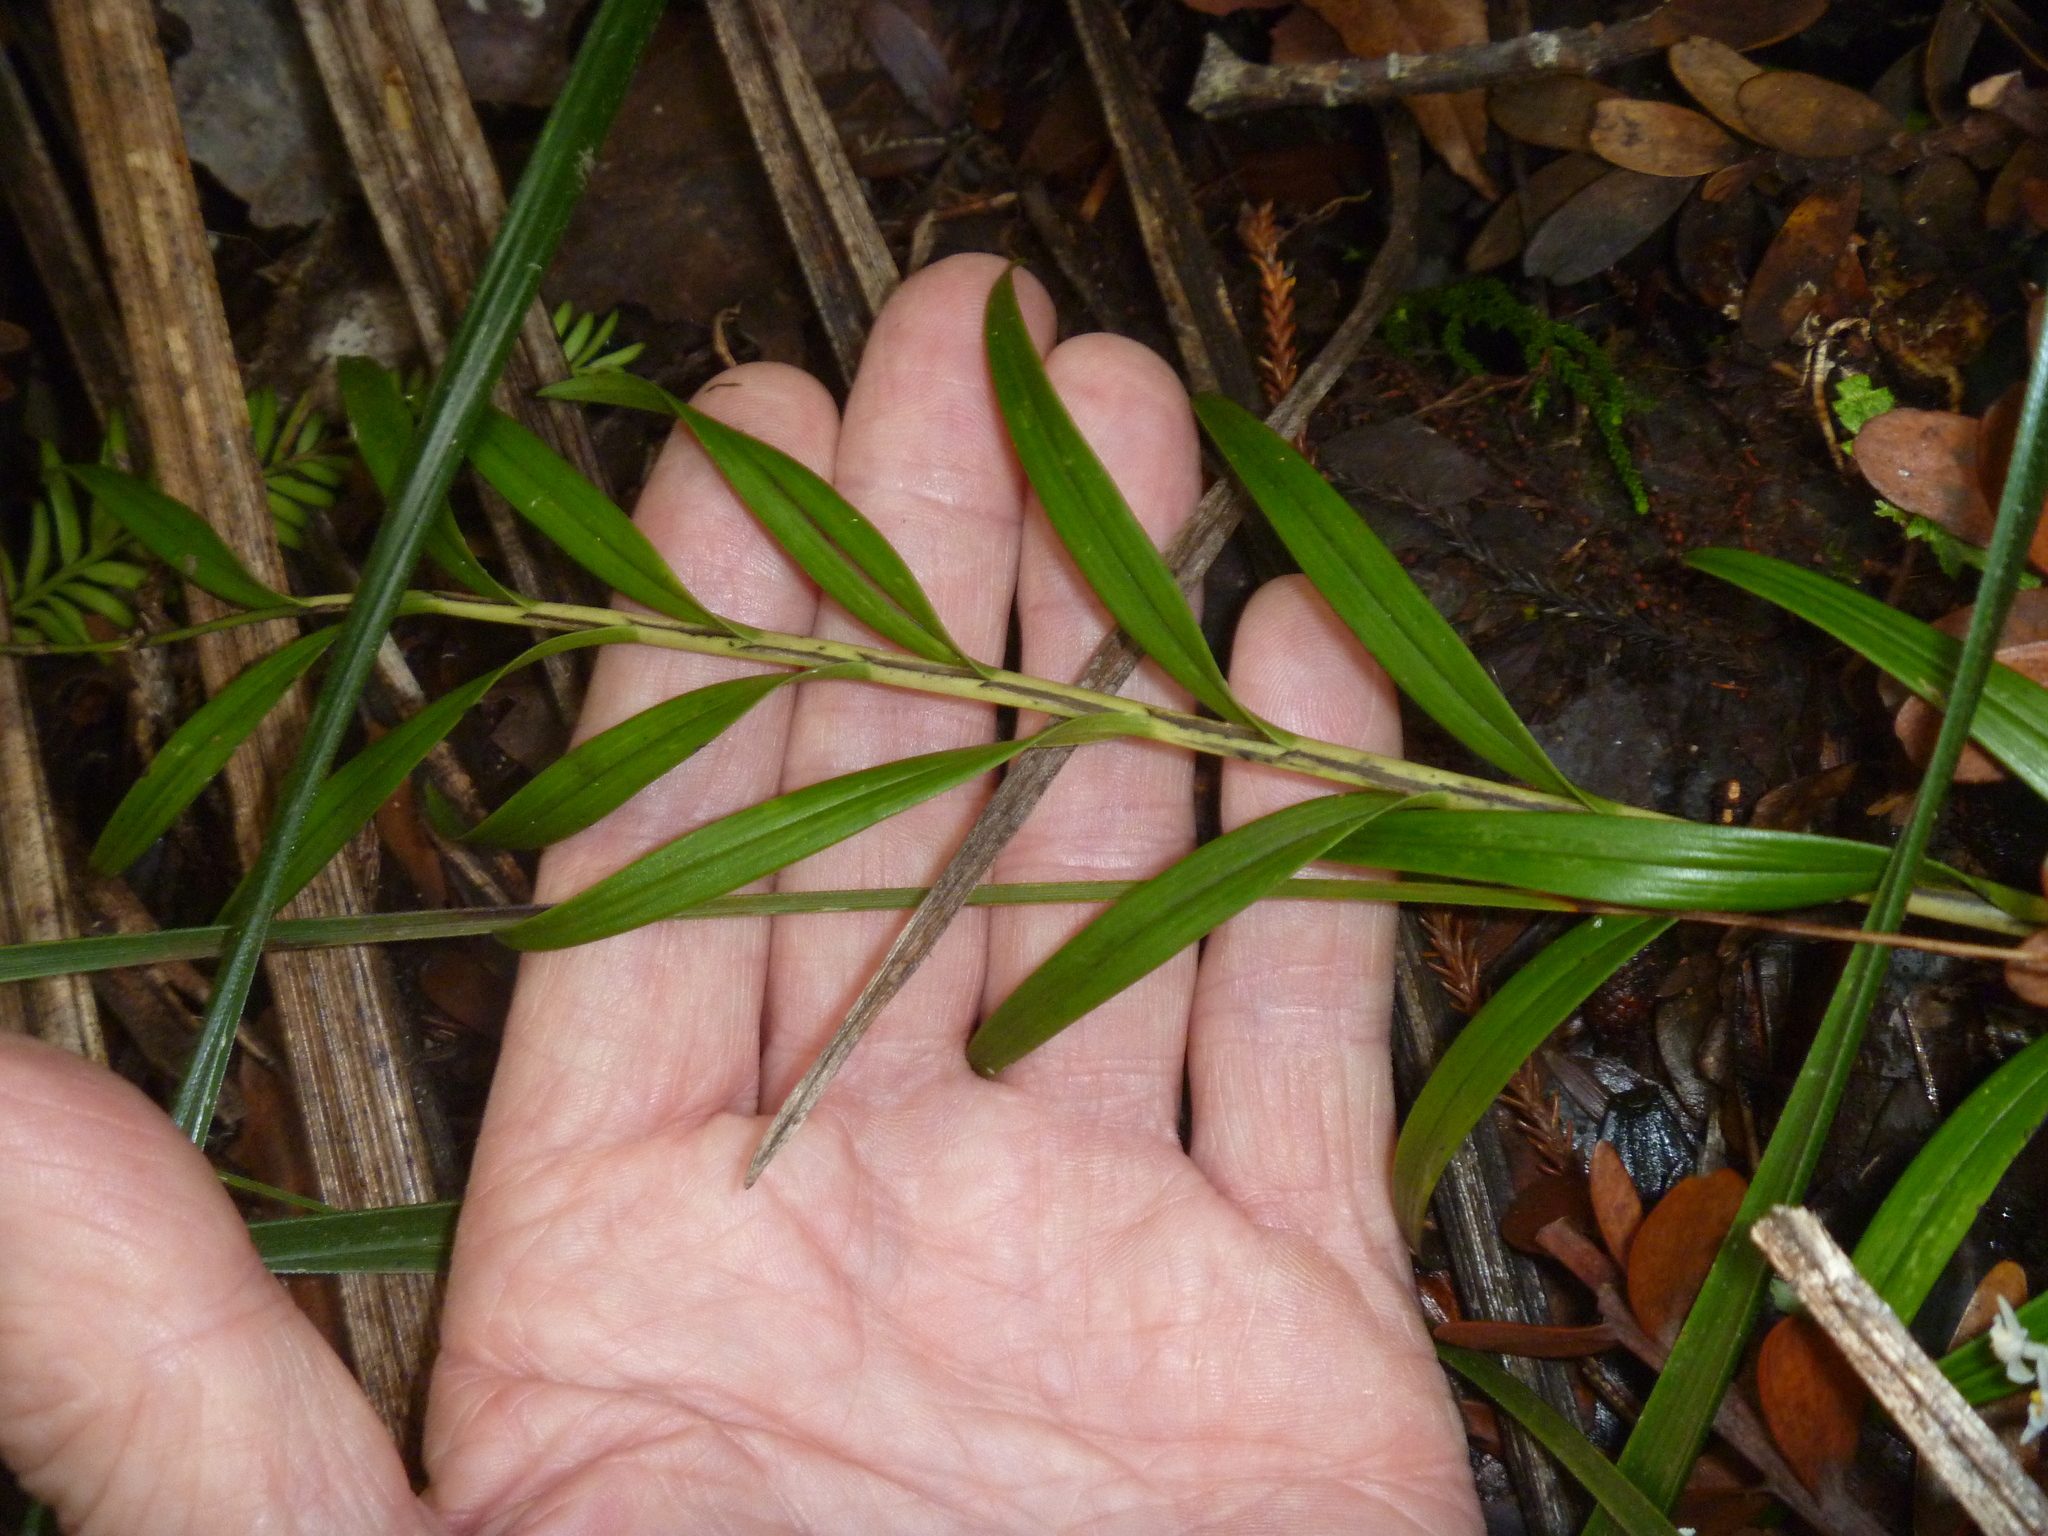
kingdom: Plantae
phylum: Tracheophyta
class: Liliopsida
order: Asparagales
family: Orchidaceae
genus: Earina
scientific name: Earina autumnalis
